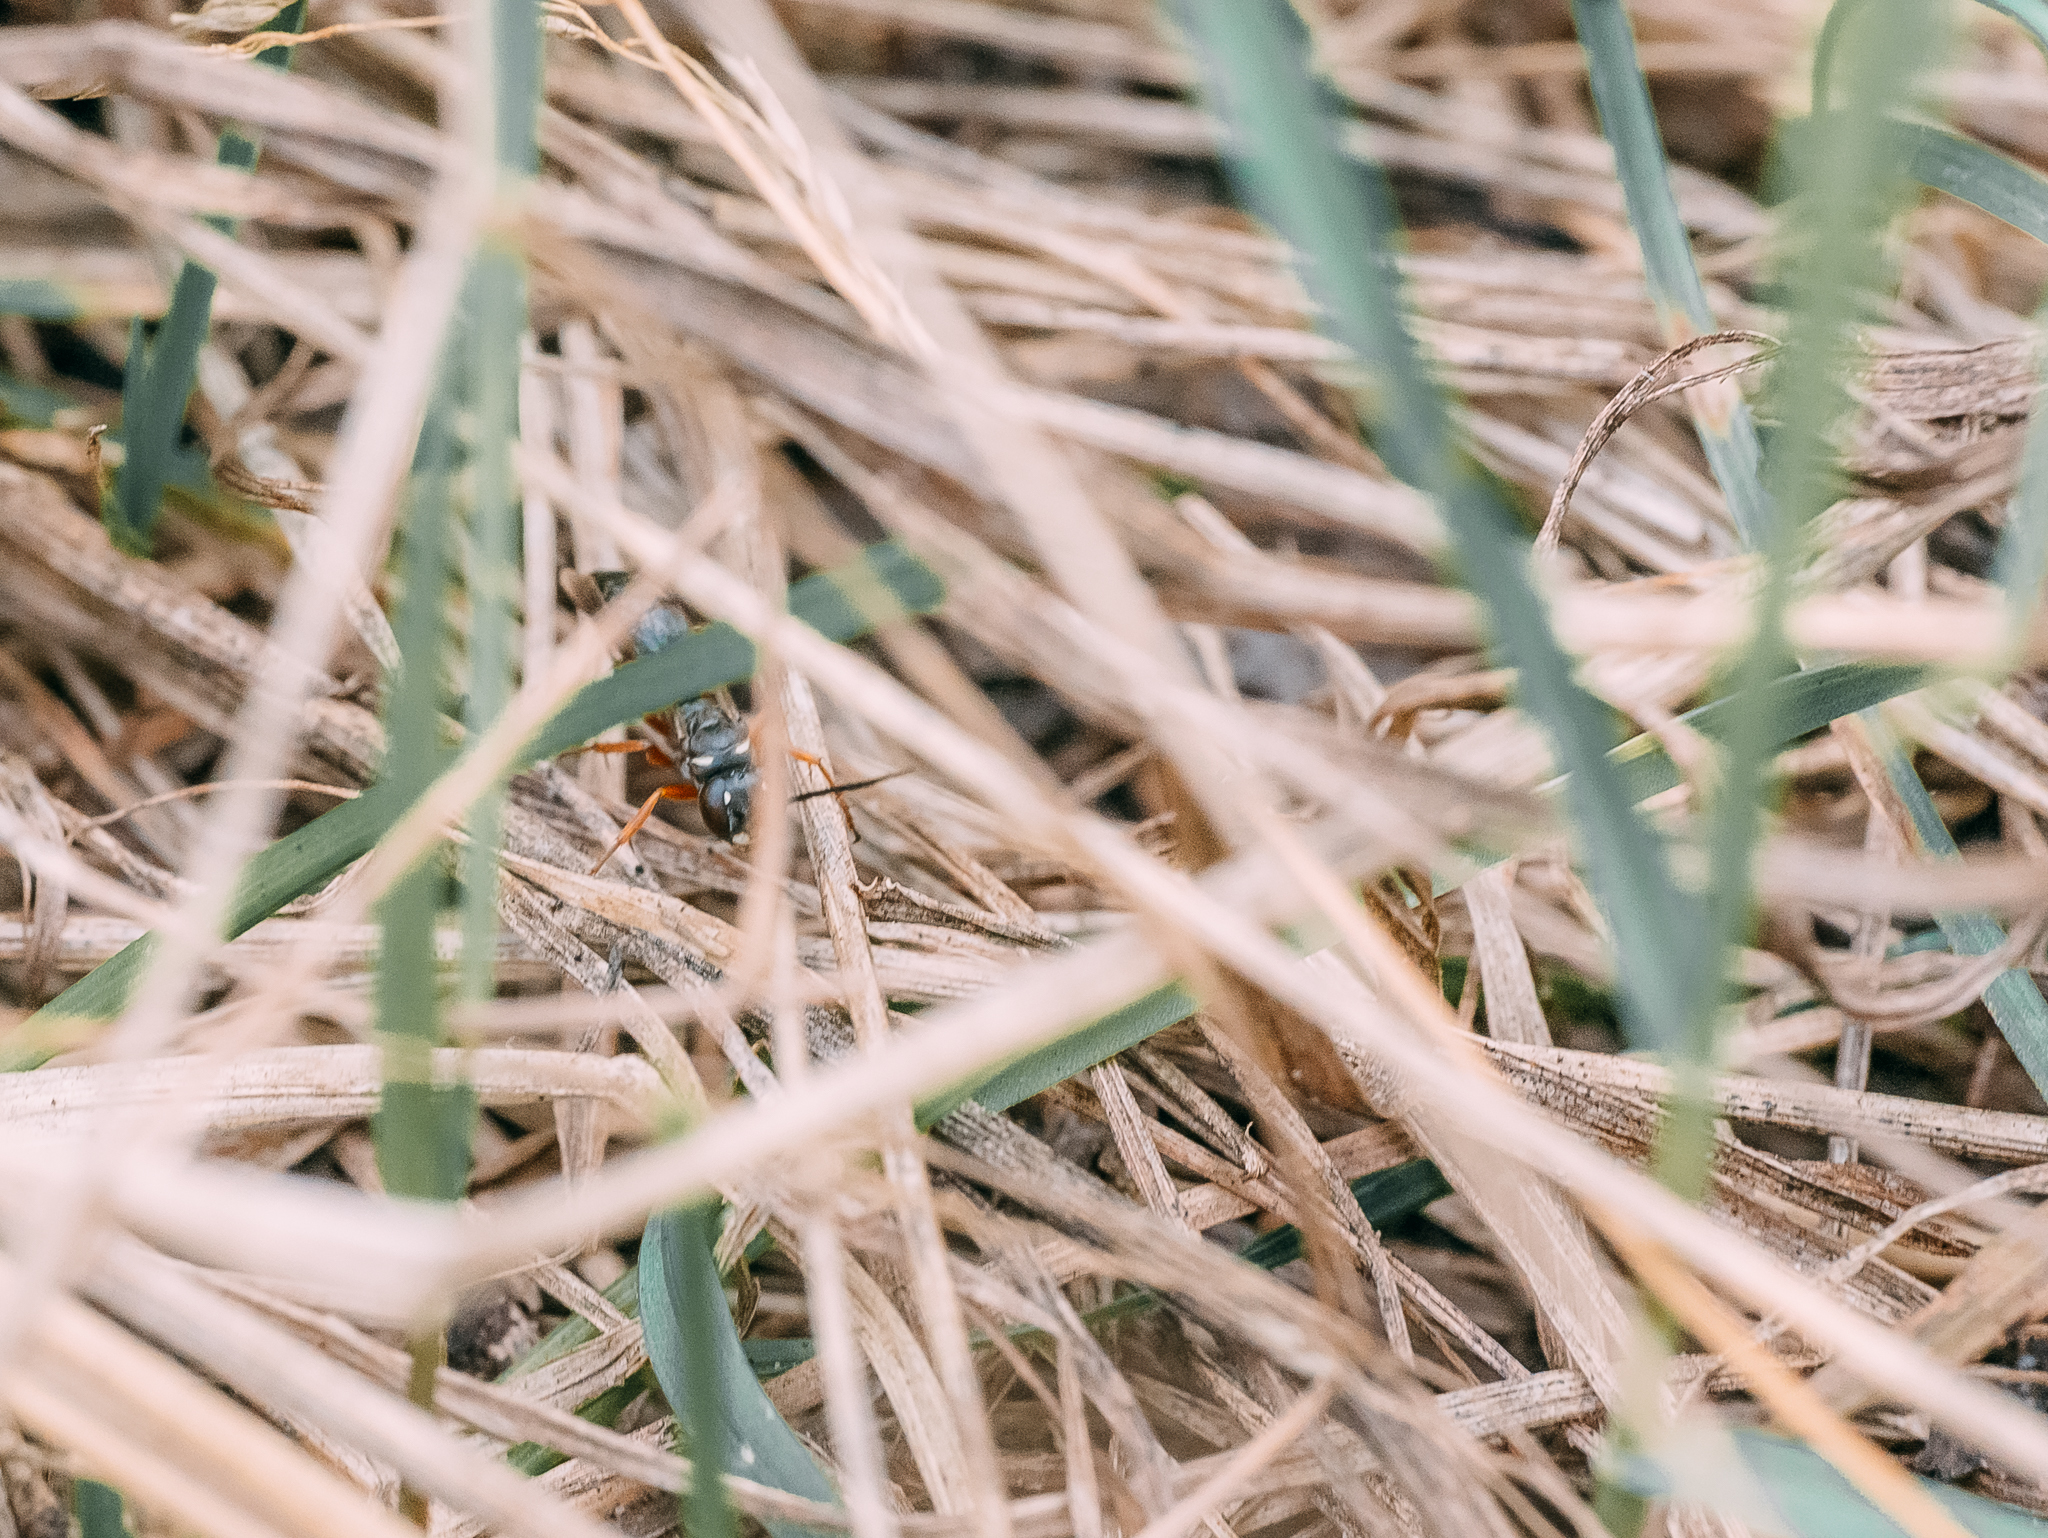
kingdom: Animalia
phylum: Arthropoda
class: Insecta
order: Hymenoptera
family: Pompilidae
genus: Agenioideus
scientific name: Agenioideus cinctellus
